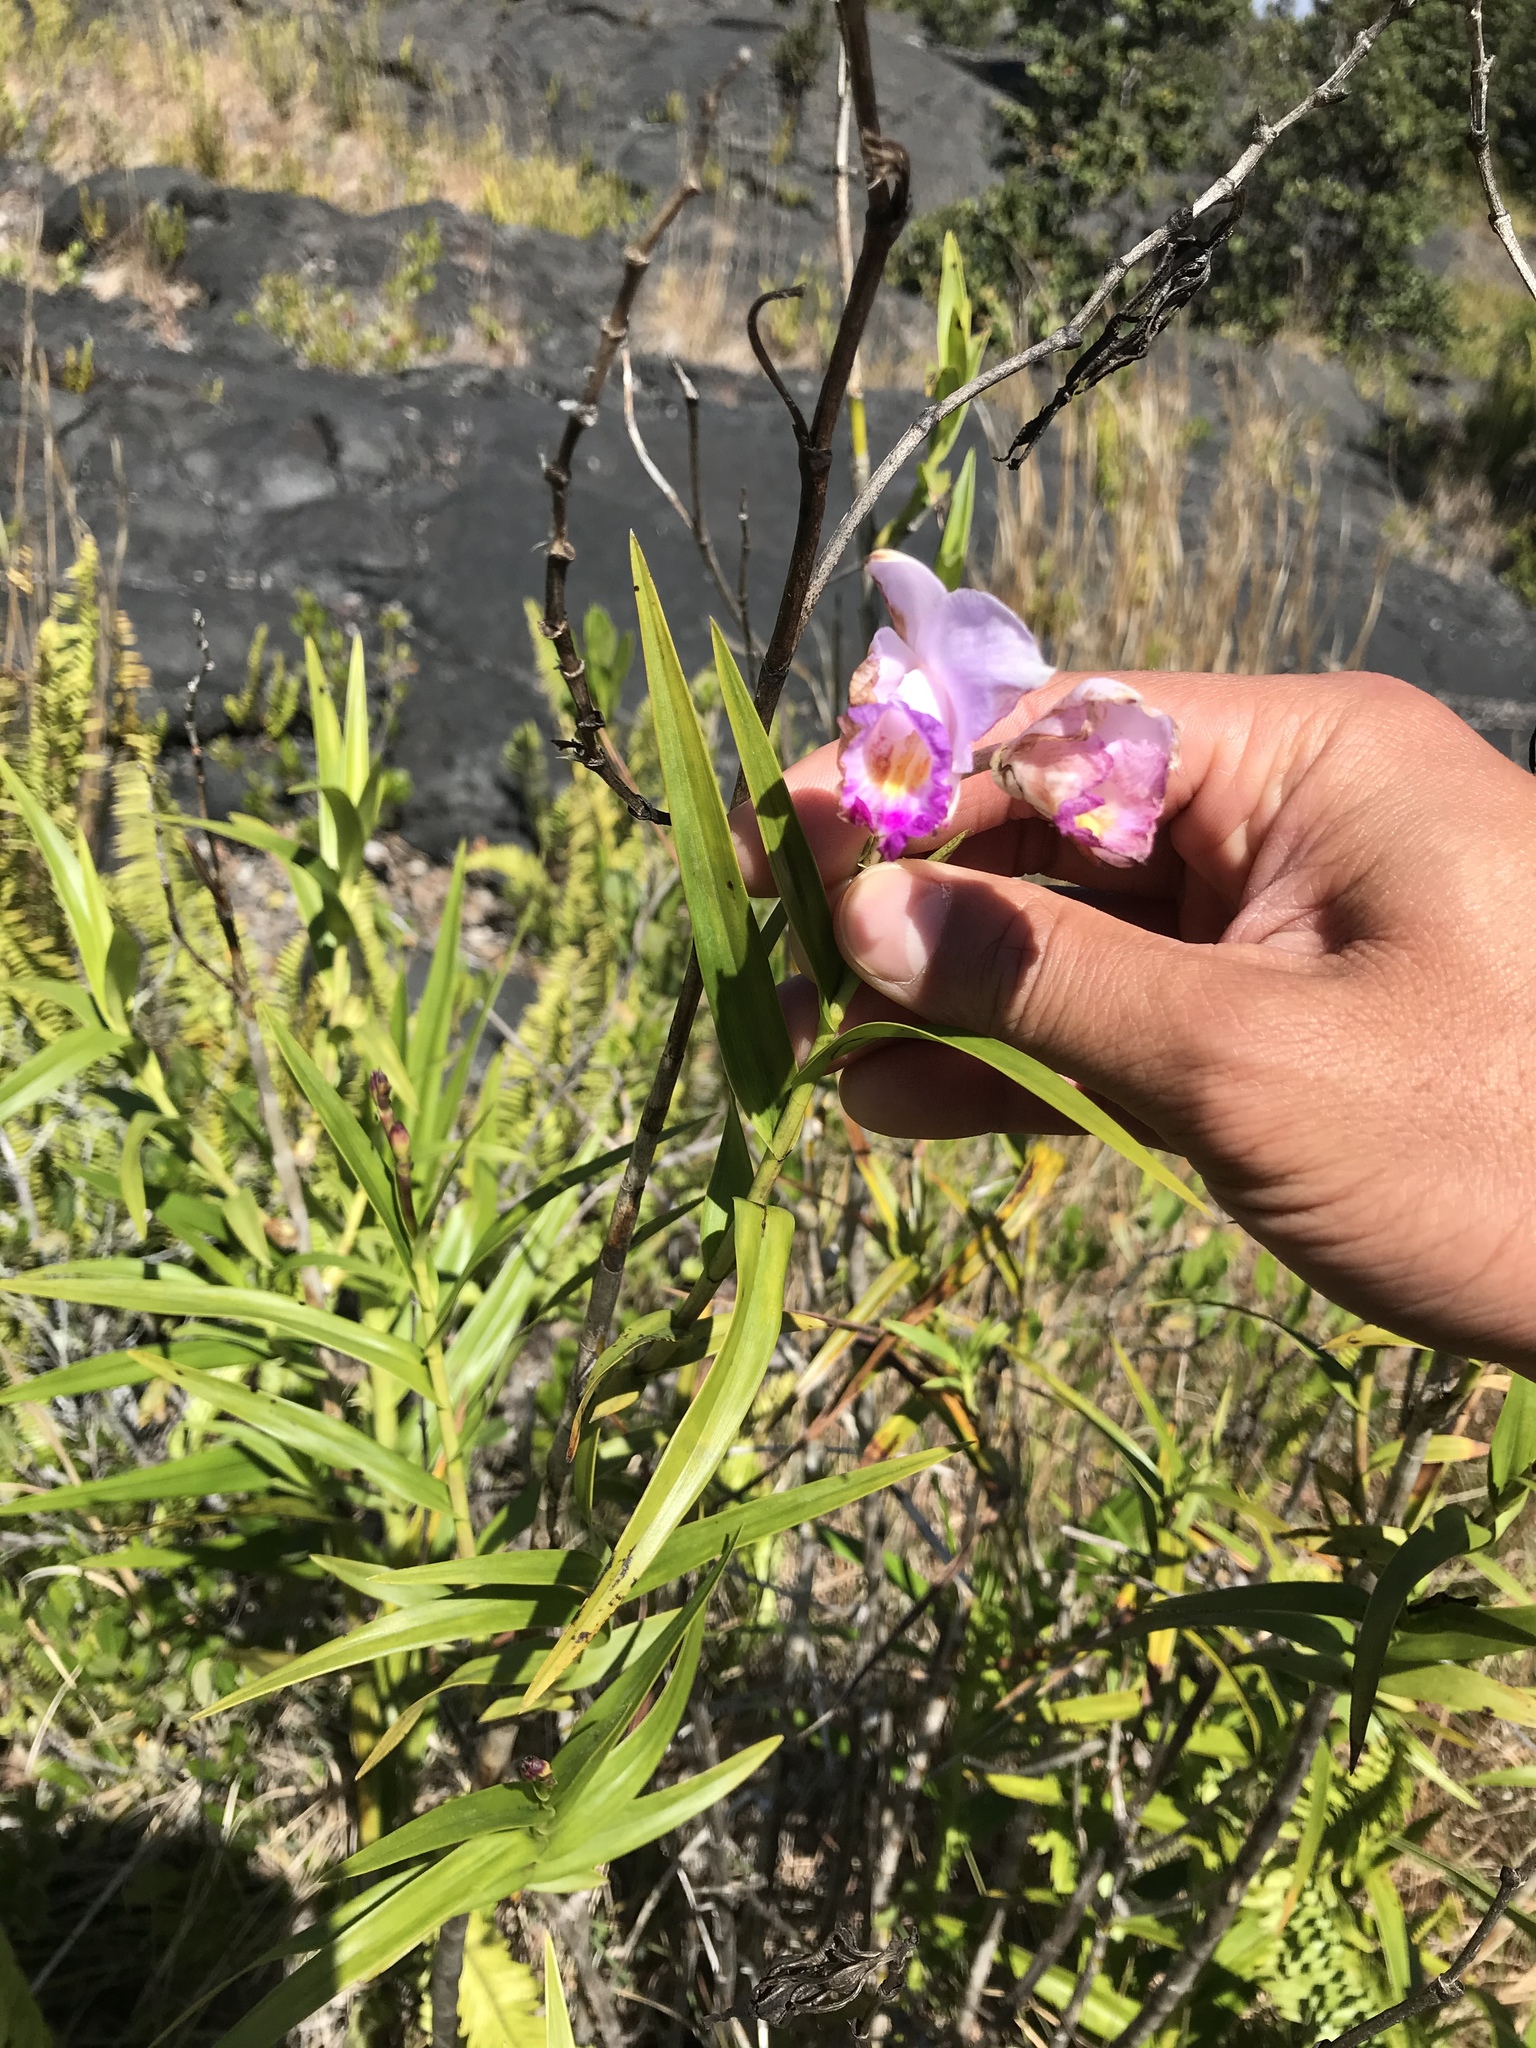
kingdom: Plantae
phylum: Tracheophyta
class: Liliopsida
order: Asparagales
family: Orchidaceae
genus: Arundina
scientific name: Arundina graminifolia
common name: Bamboo orchid
